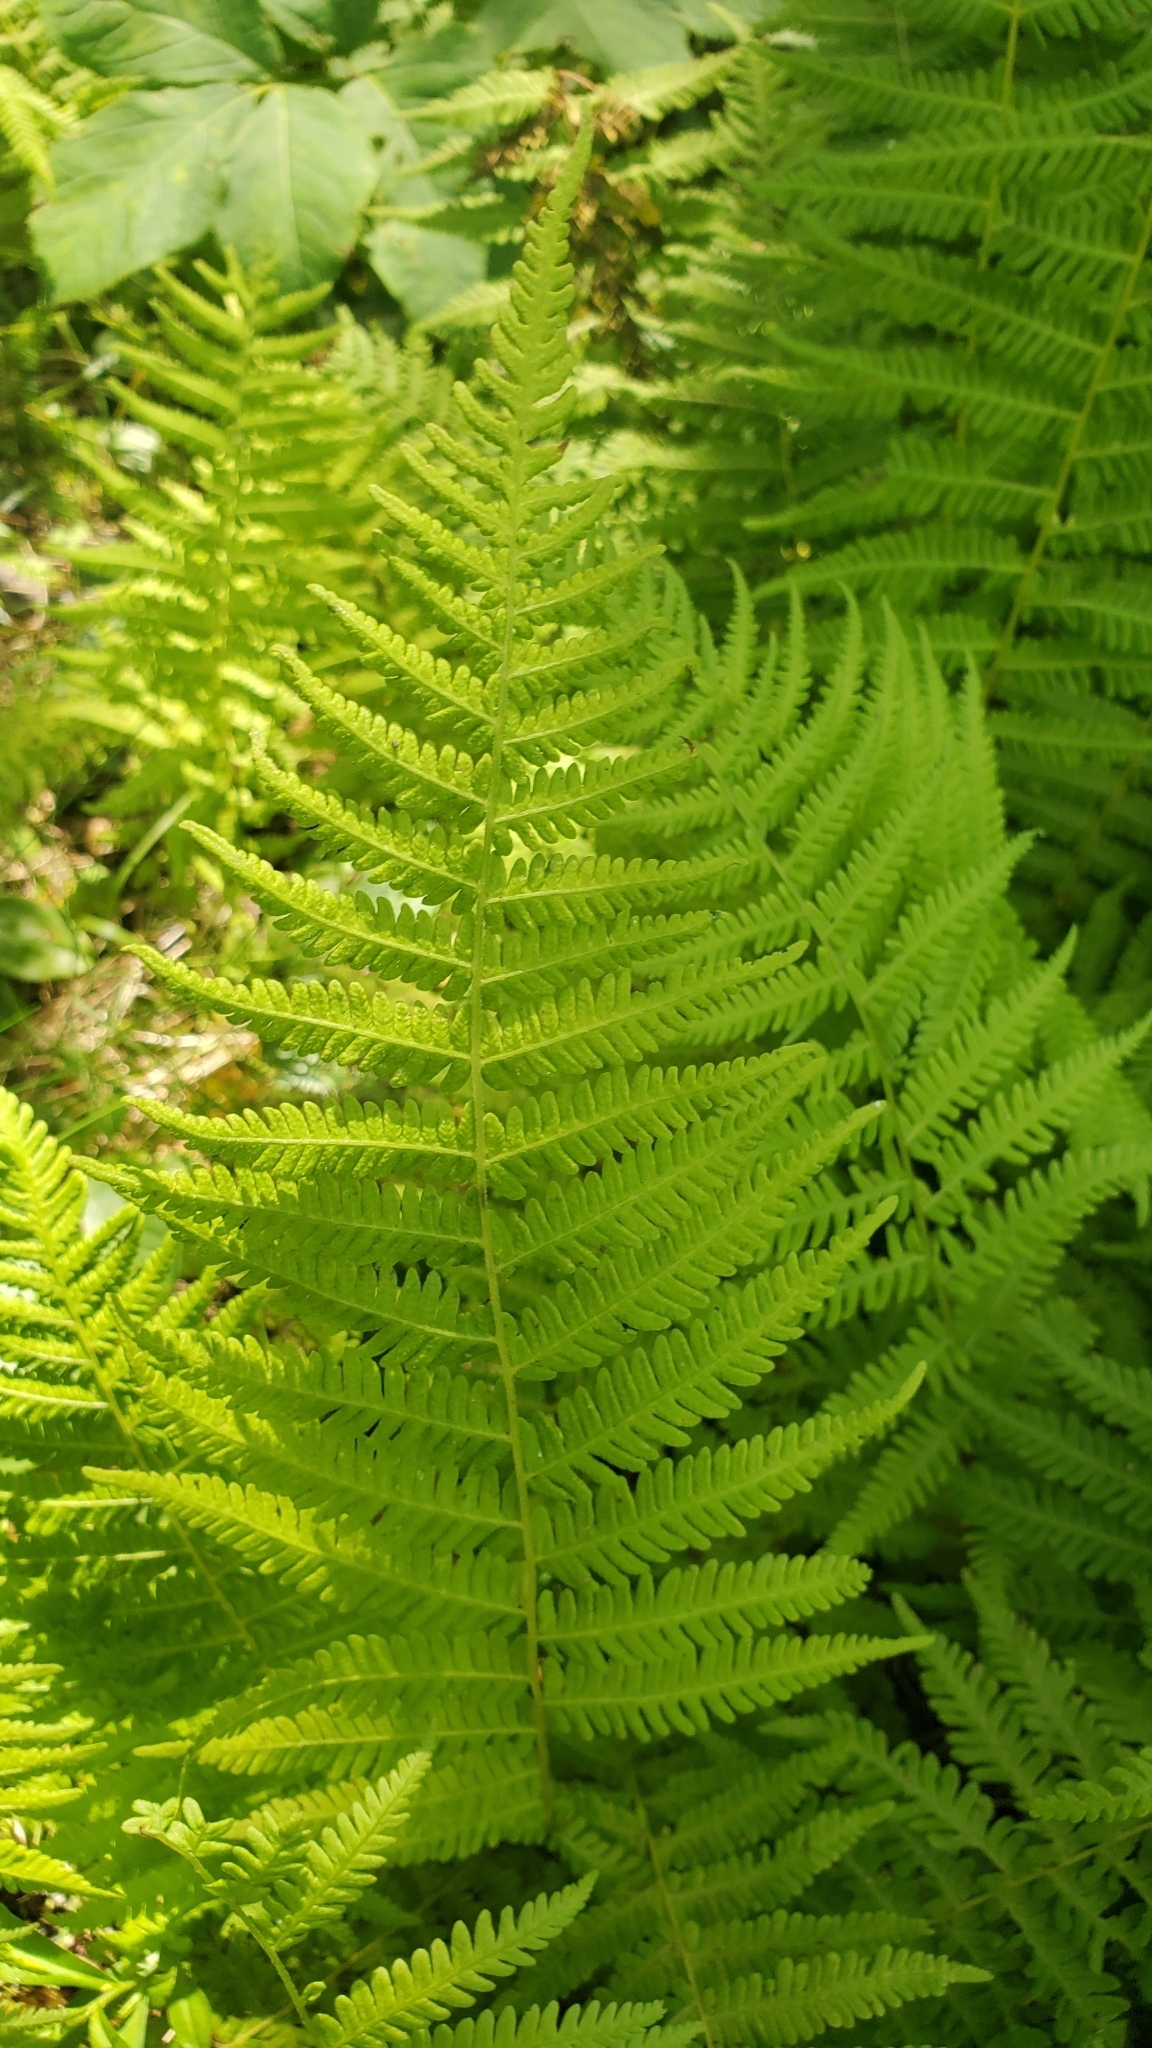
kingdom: Plantae
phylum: Tracheophyta
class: Polypodiopsida
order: Polypodiales
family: Thelypteridaceae
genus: Amauropelta
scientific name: Amauropelta noveboracensis
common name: New york fern
